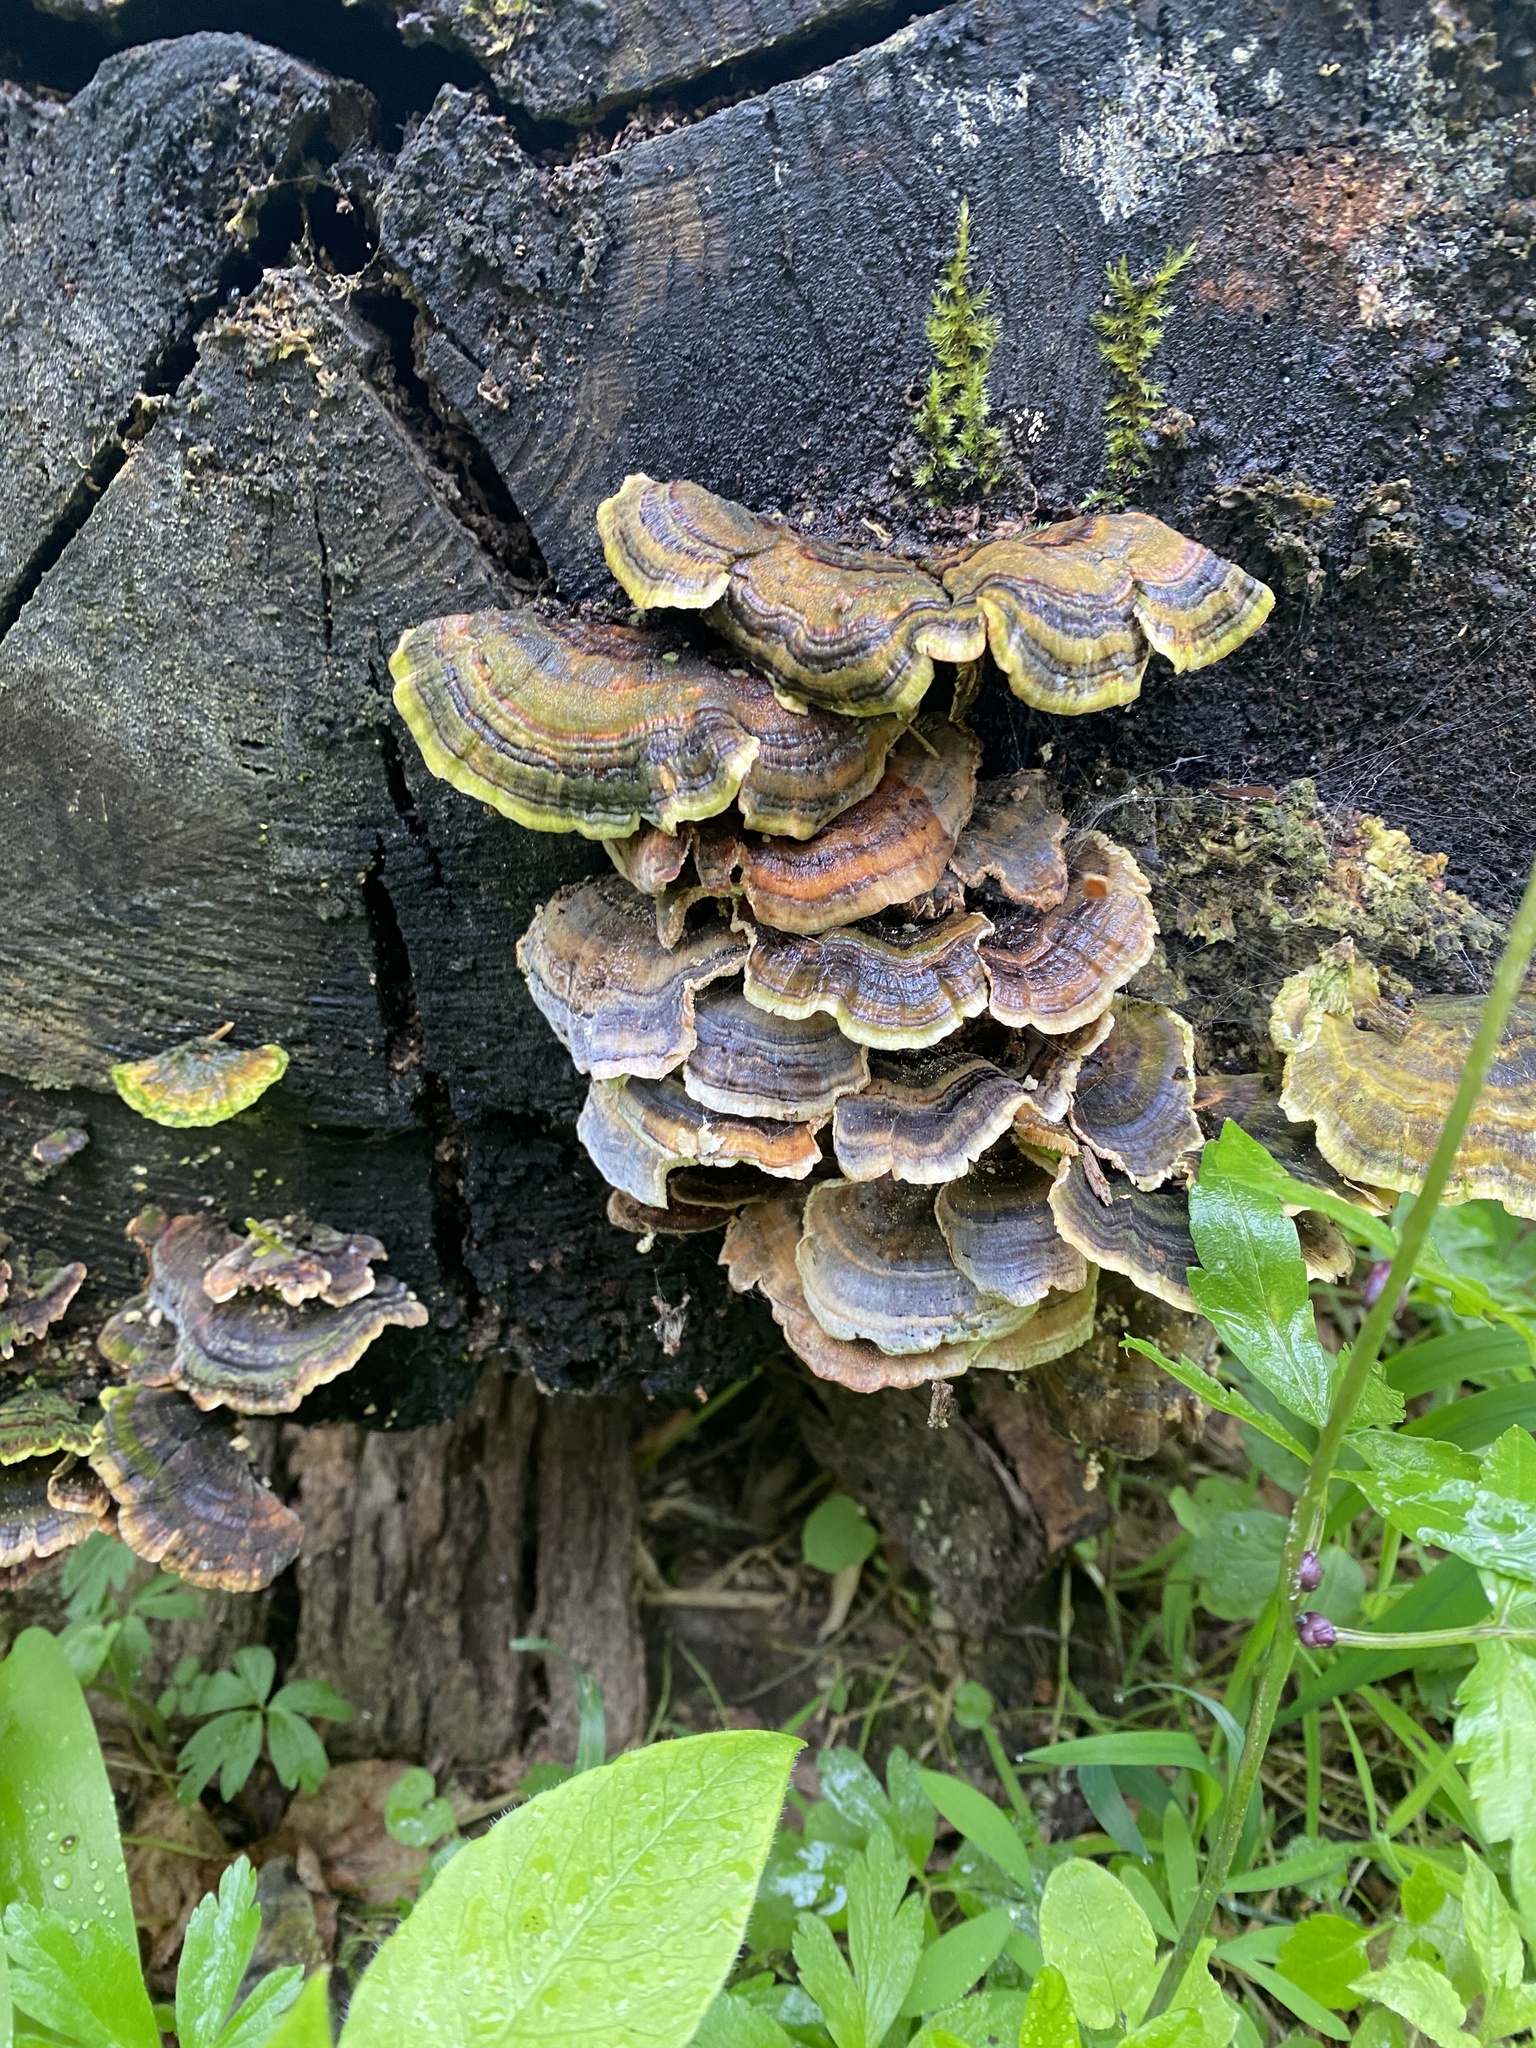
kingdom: Fungi
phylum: Basidiomycota
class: Agaricomycetes
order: Polyporales
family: Polyporaceae
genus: Trametes
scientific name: Trametes versicolor
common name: Turkeytail
